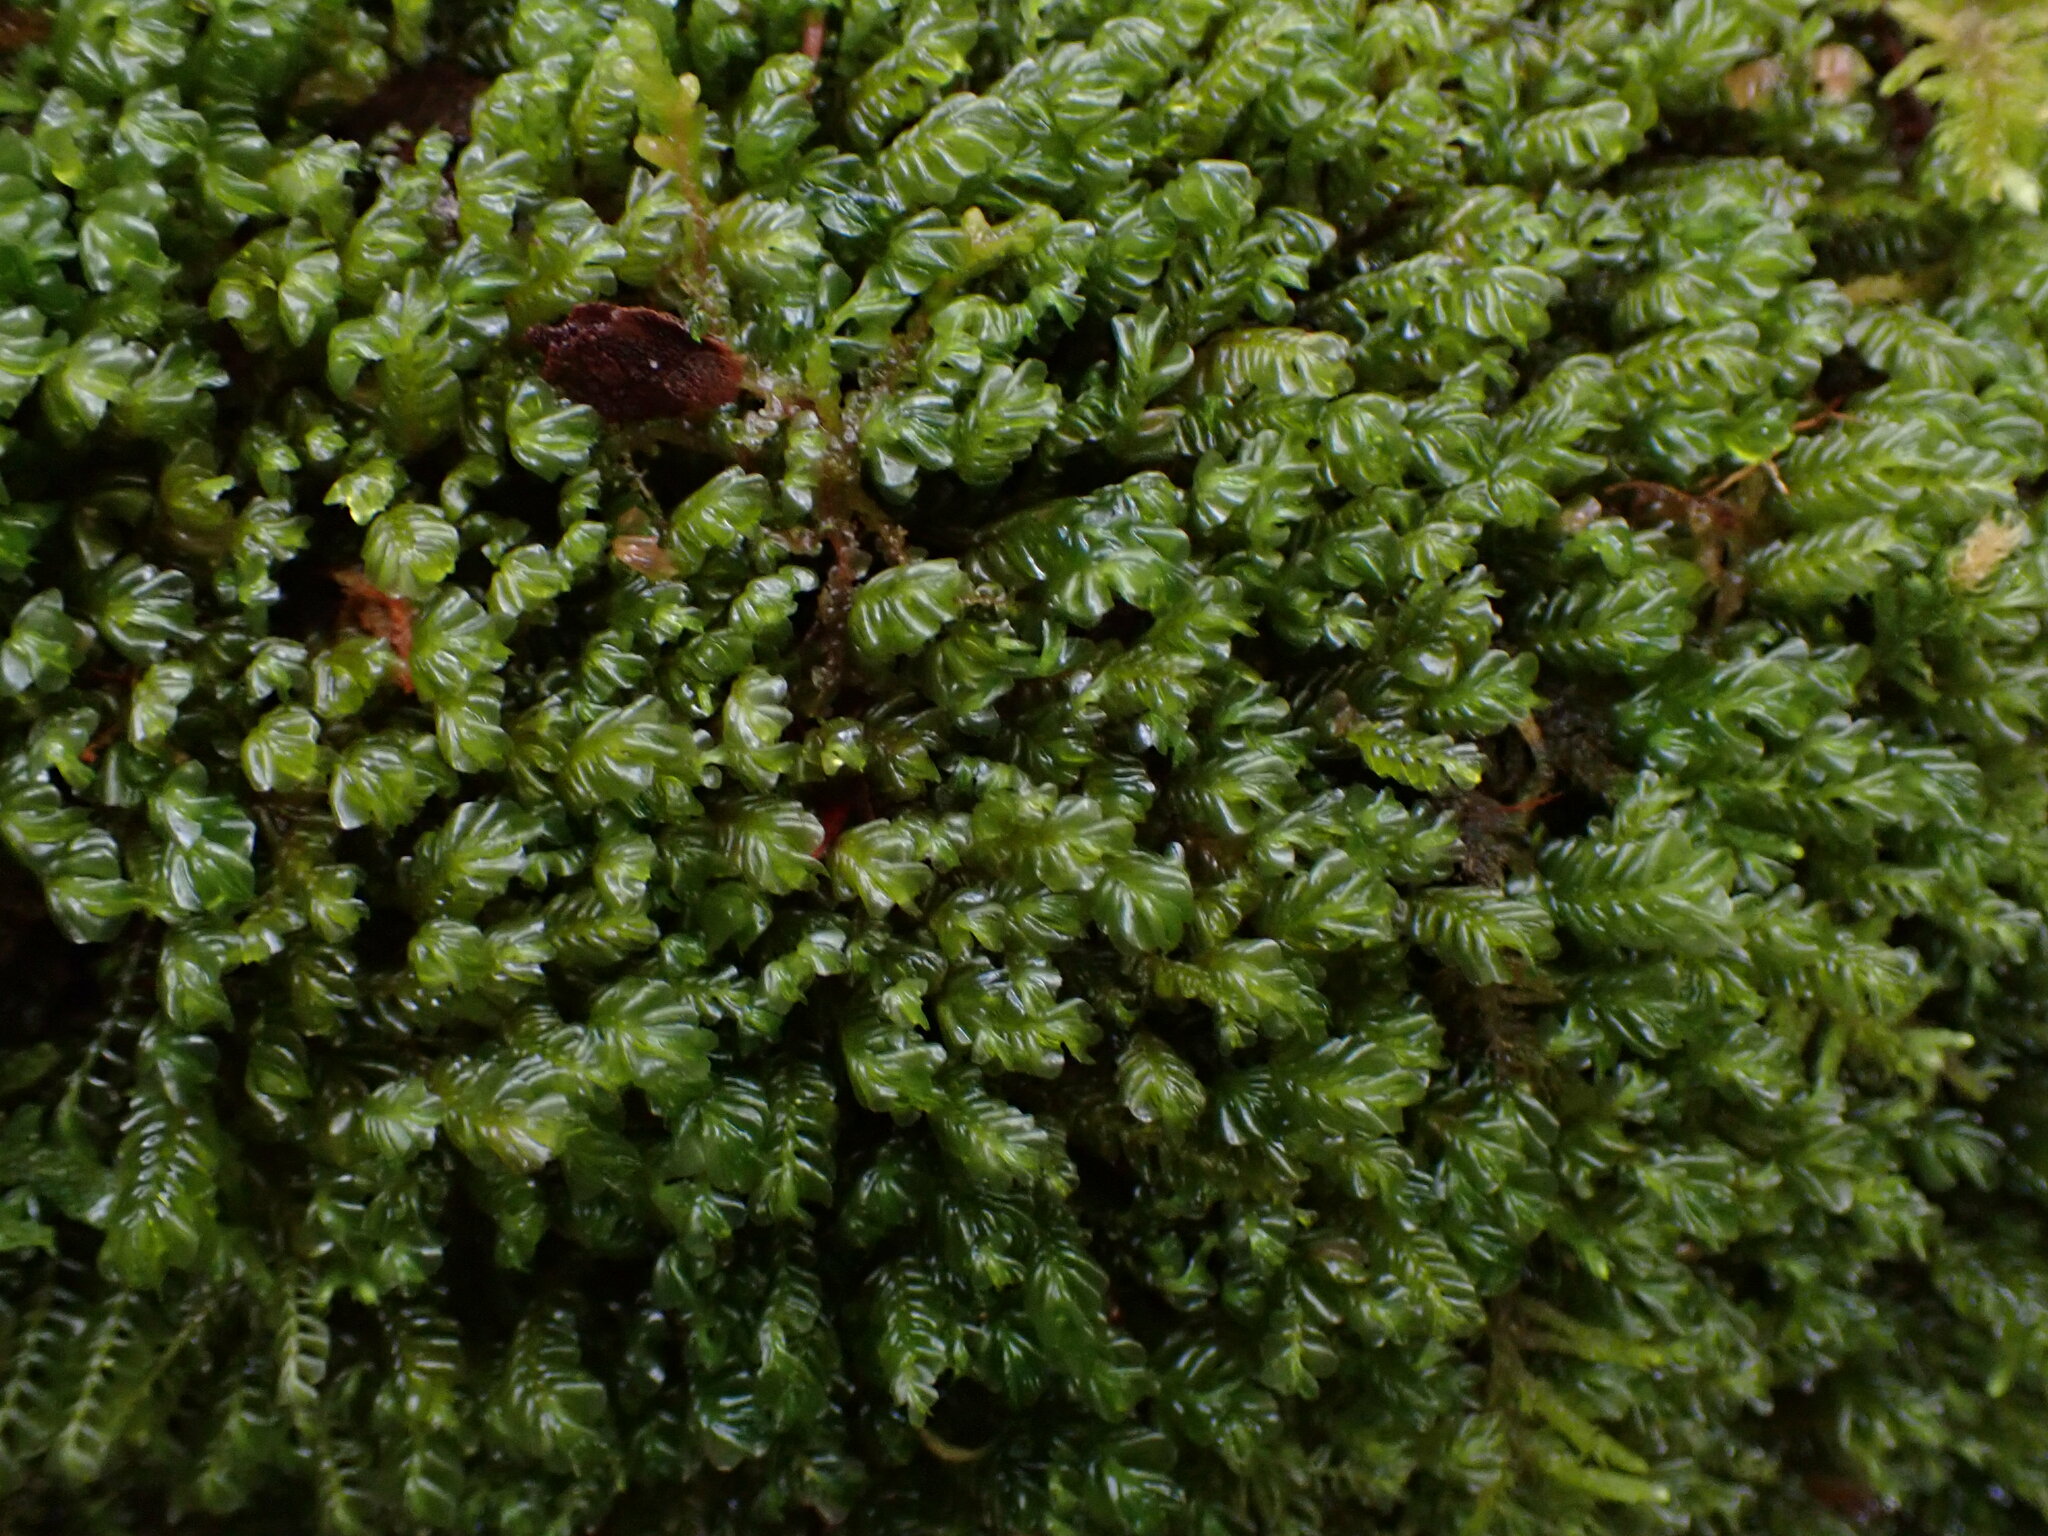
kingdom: Plantae
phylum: Marchantiophyta
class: Jungermanniopsida
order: Jungermanniales
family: Plagiochilaceae
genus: Plagiochila
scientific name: Plagiochila porelloides
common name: Lesser featherwort
